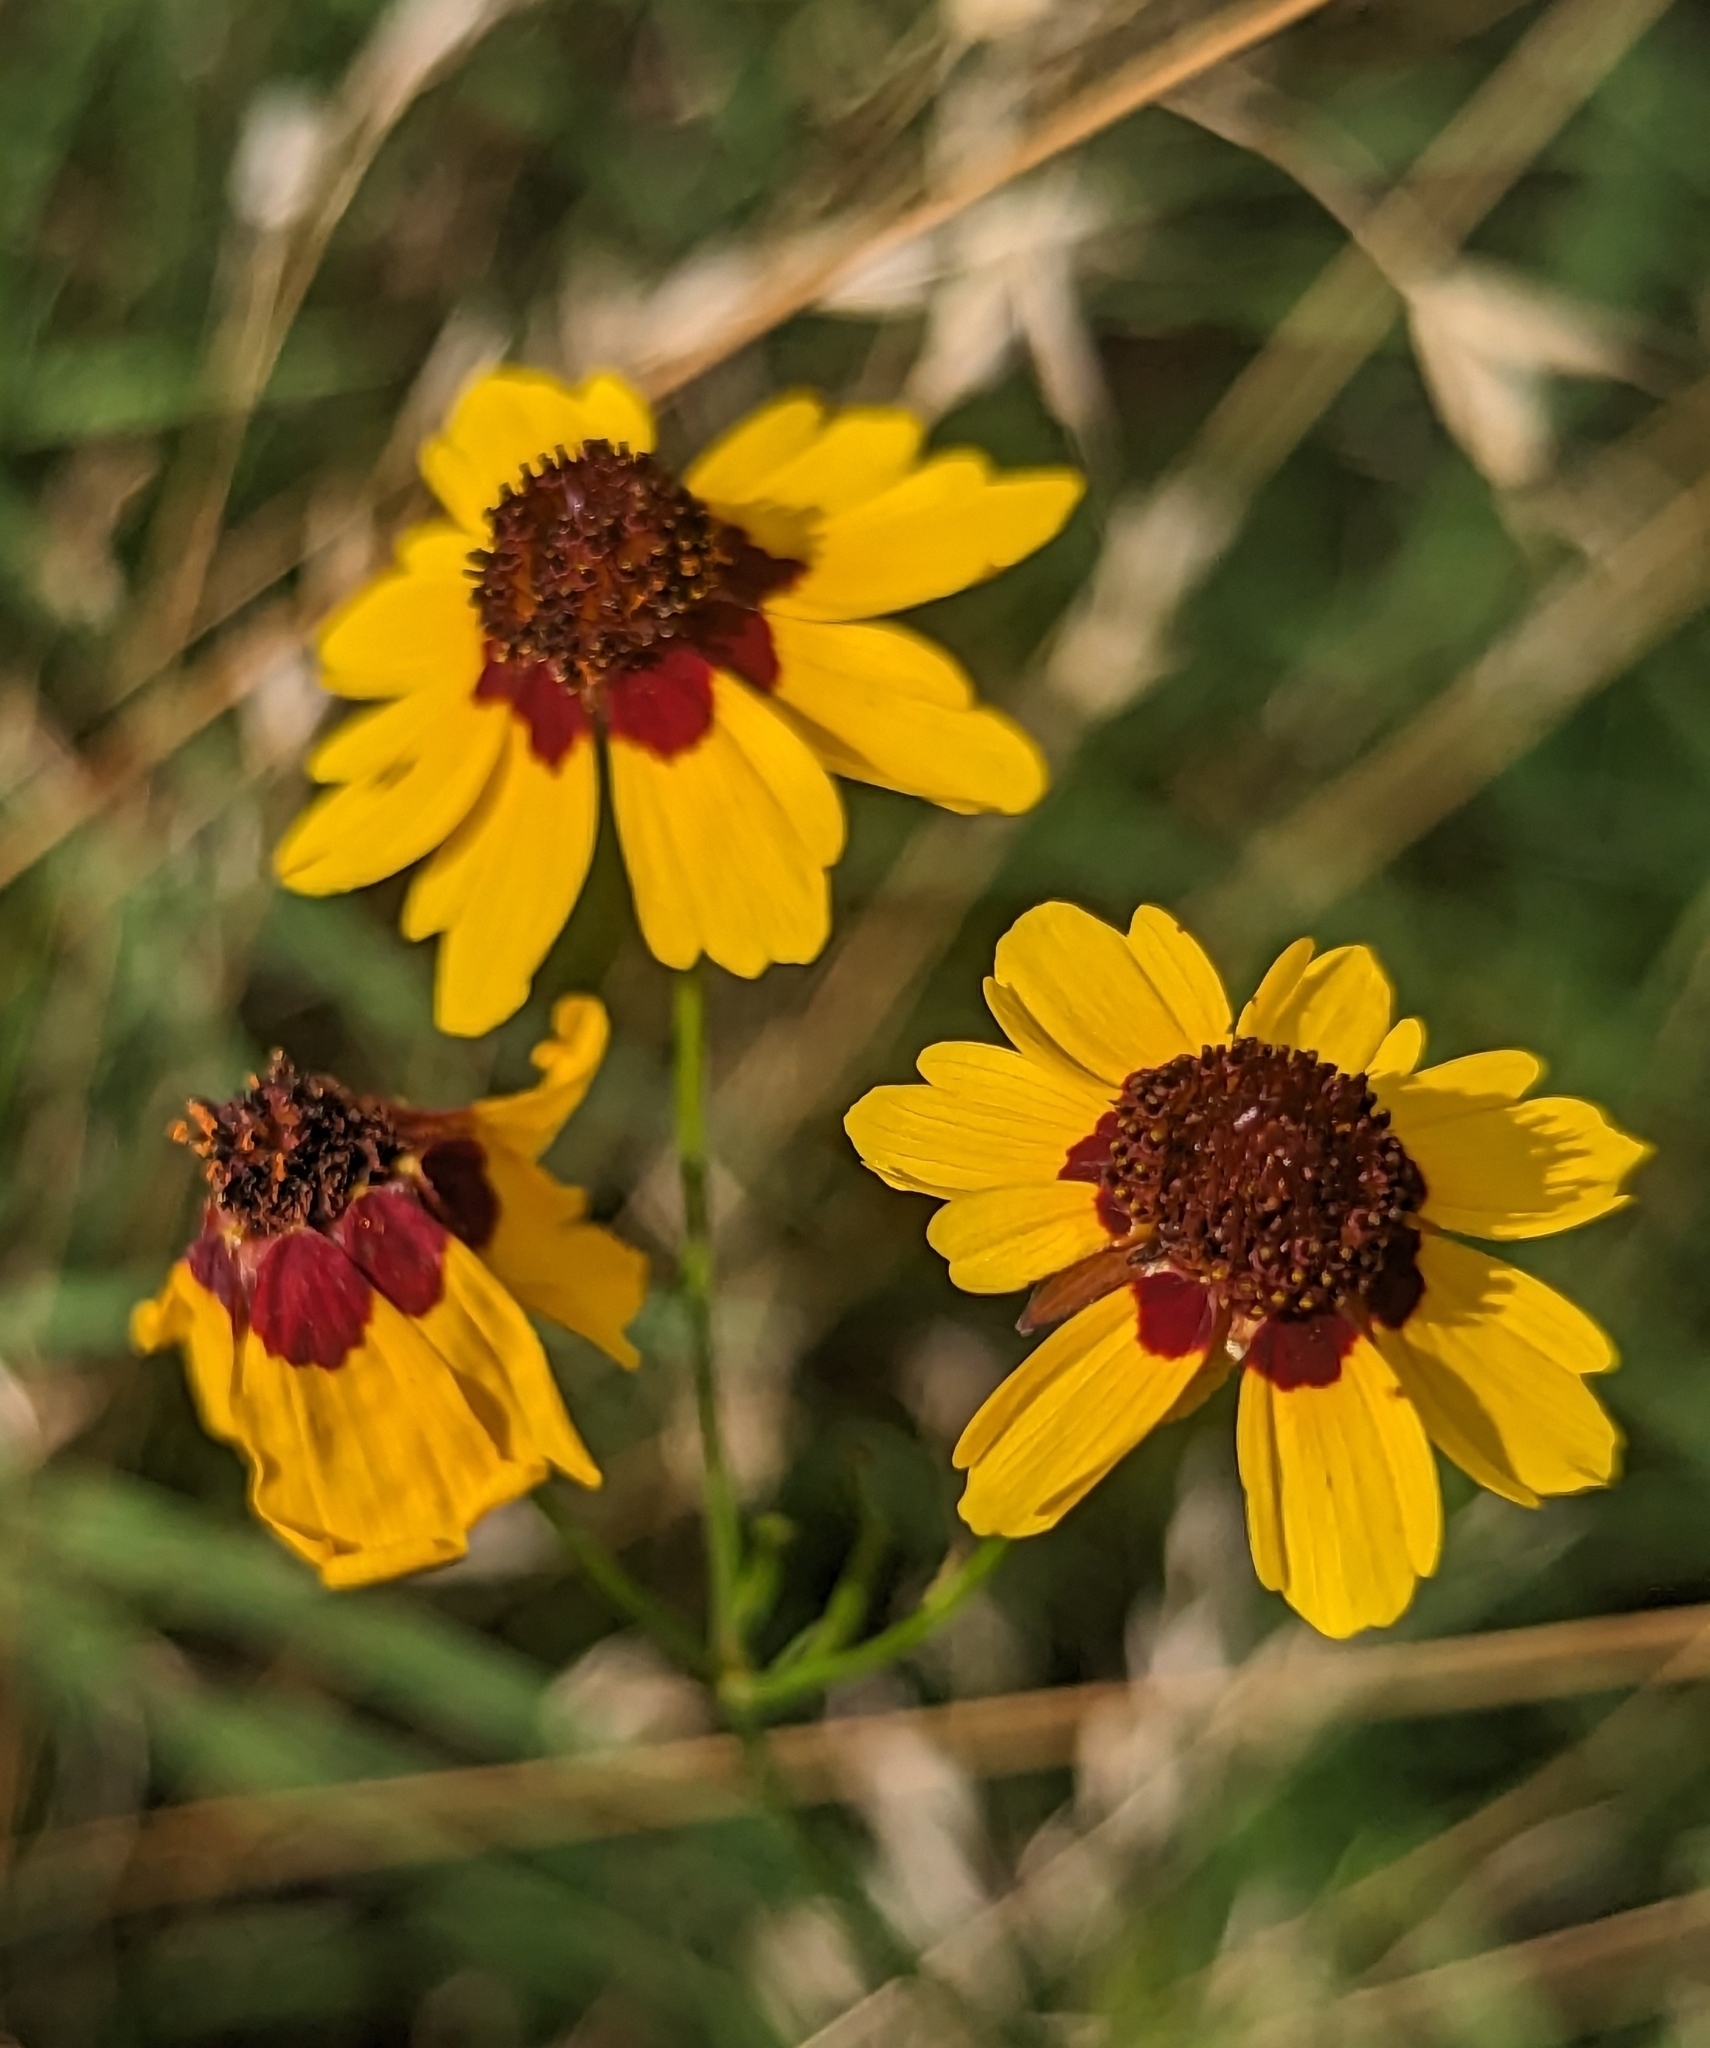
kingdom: Plantae
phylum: Tracheophyta
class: Magnoliopsida
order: Asterales
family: Asteraceae
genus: Coreopsis
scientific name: Coreopsis tinctoria
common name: Garden tickseed
